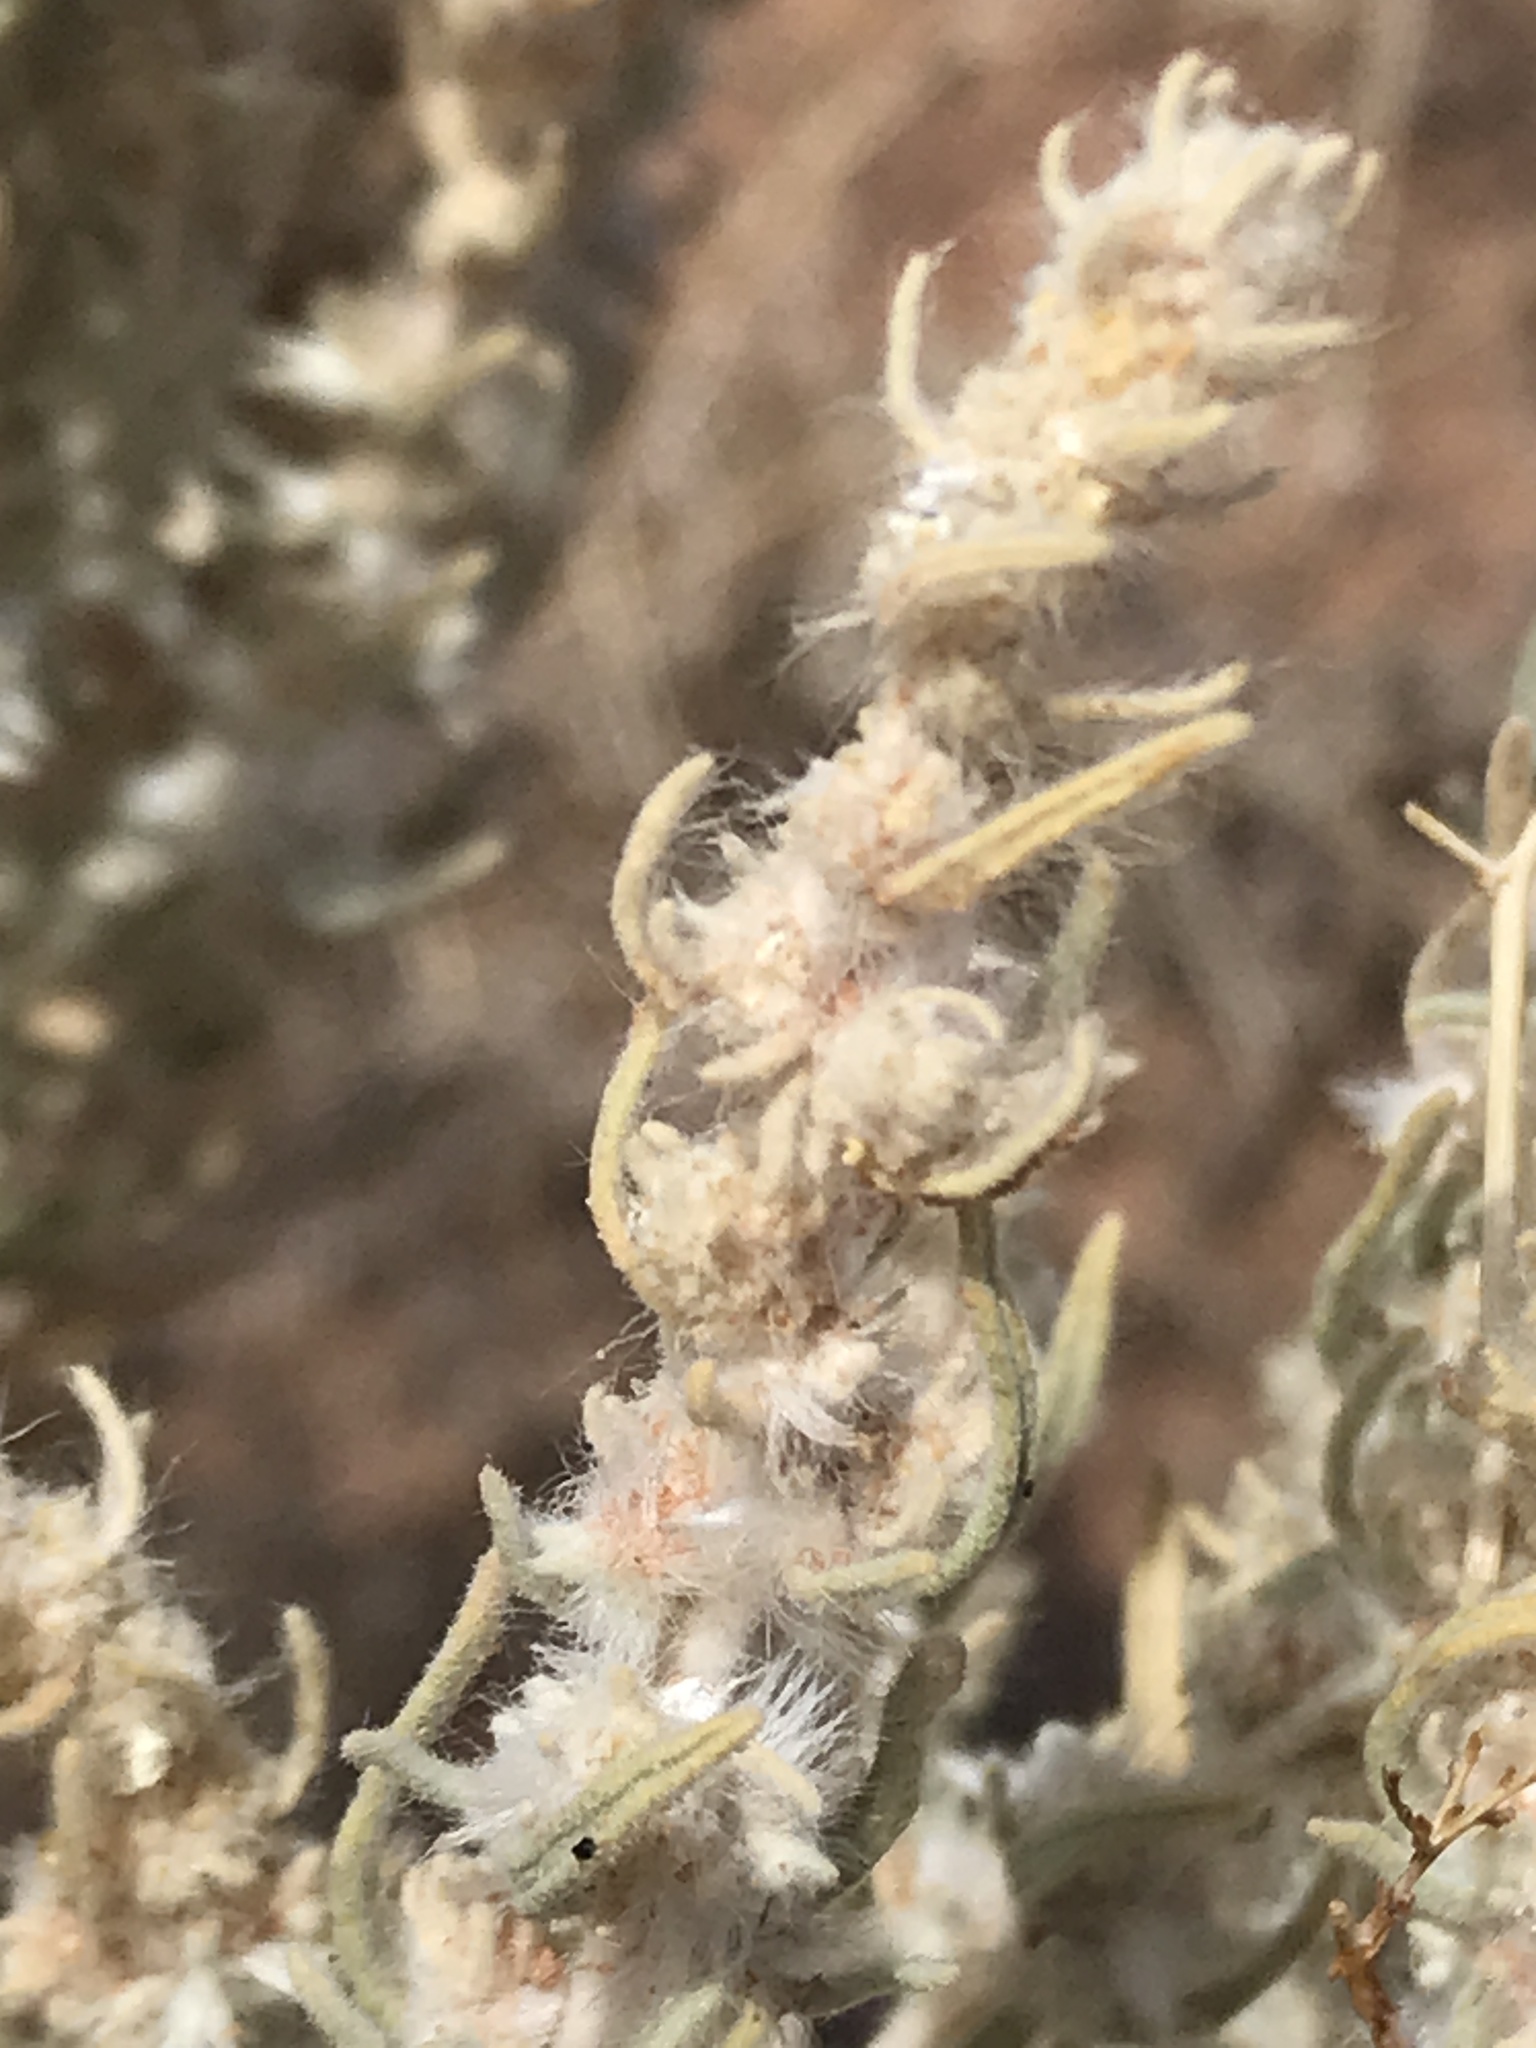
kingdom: Plantae
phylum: Tracheophyta
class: Magnoliopsida
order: Caryophyllales
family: Amaranthaceae
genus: Krascheninnikovia
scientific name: Krascheninnikovia lanata
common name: Winterfat
